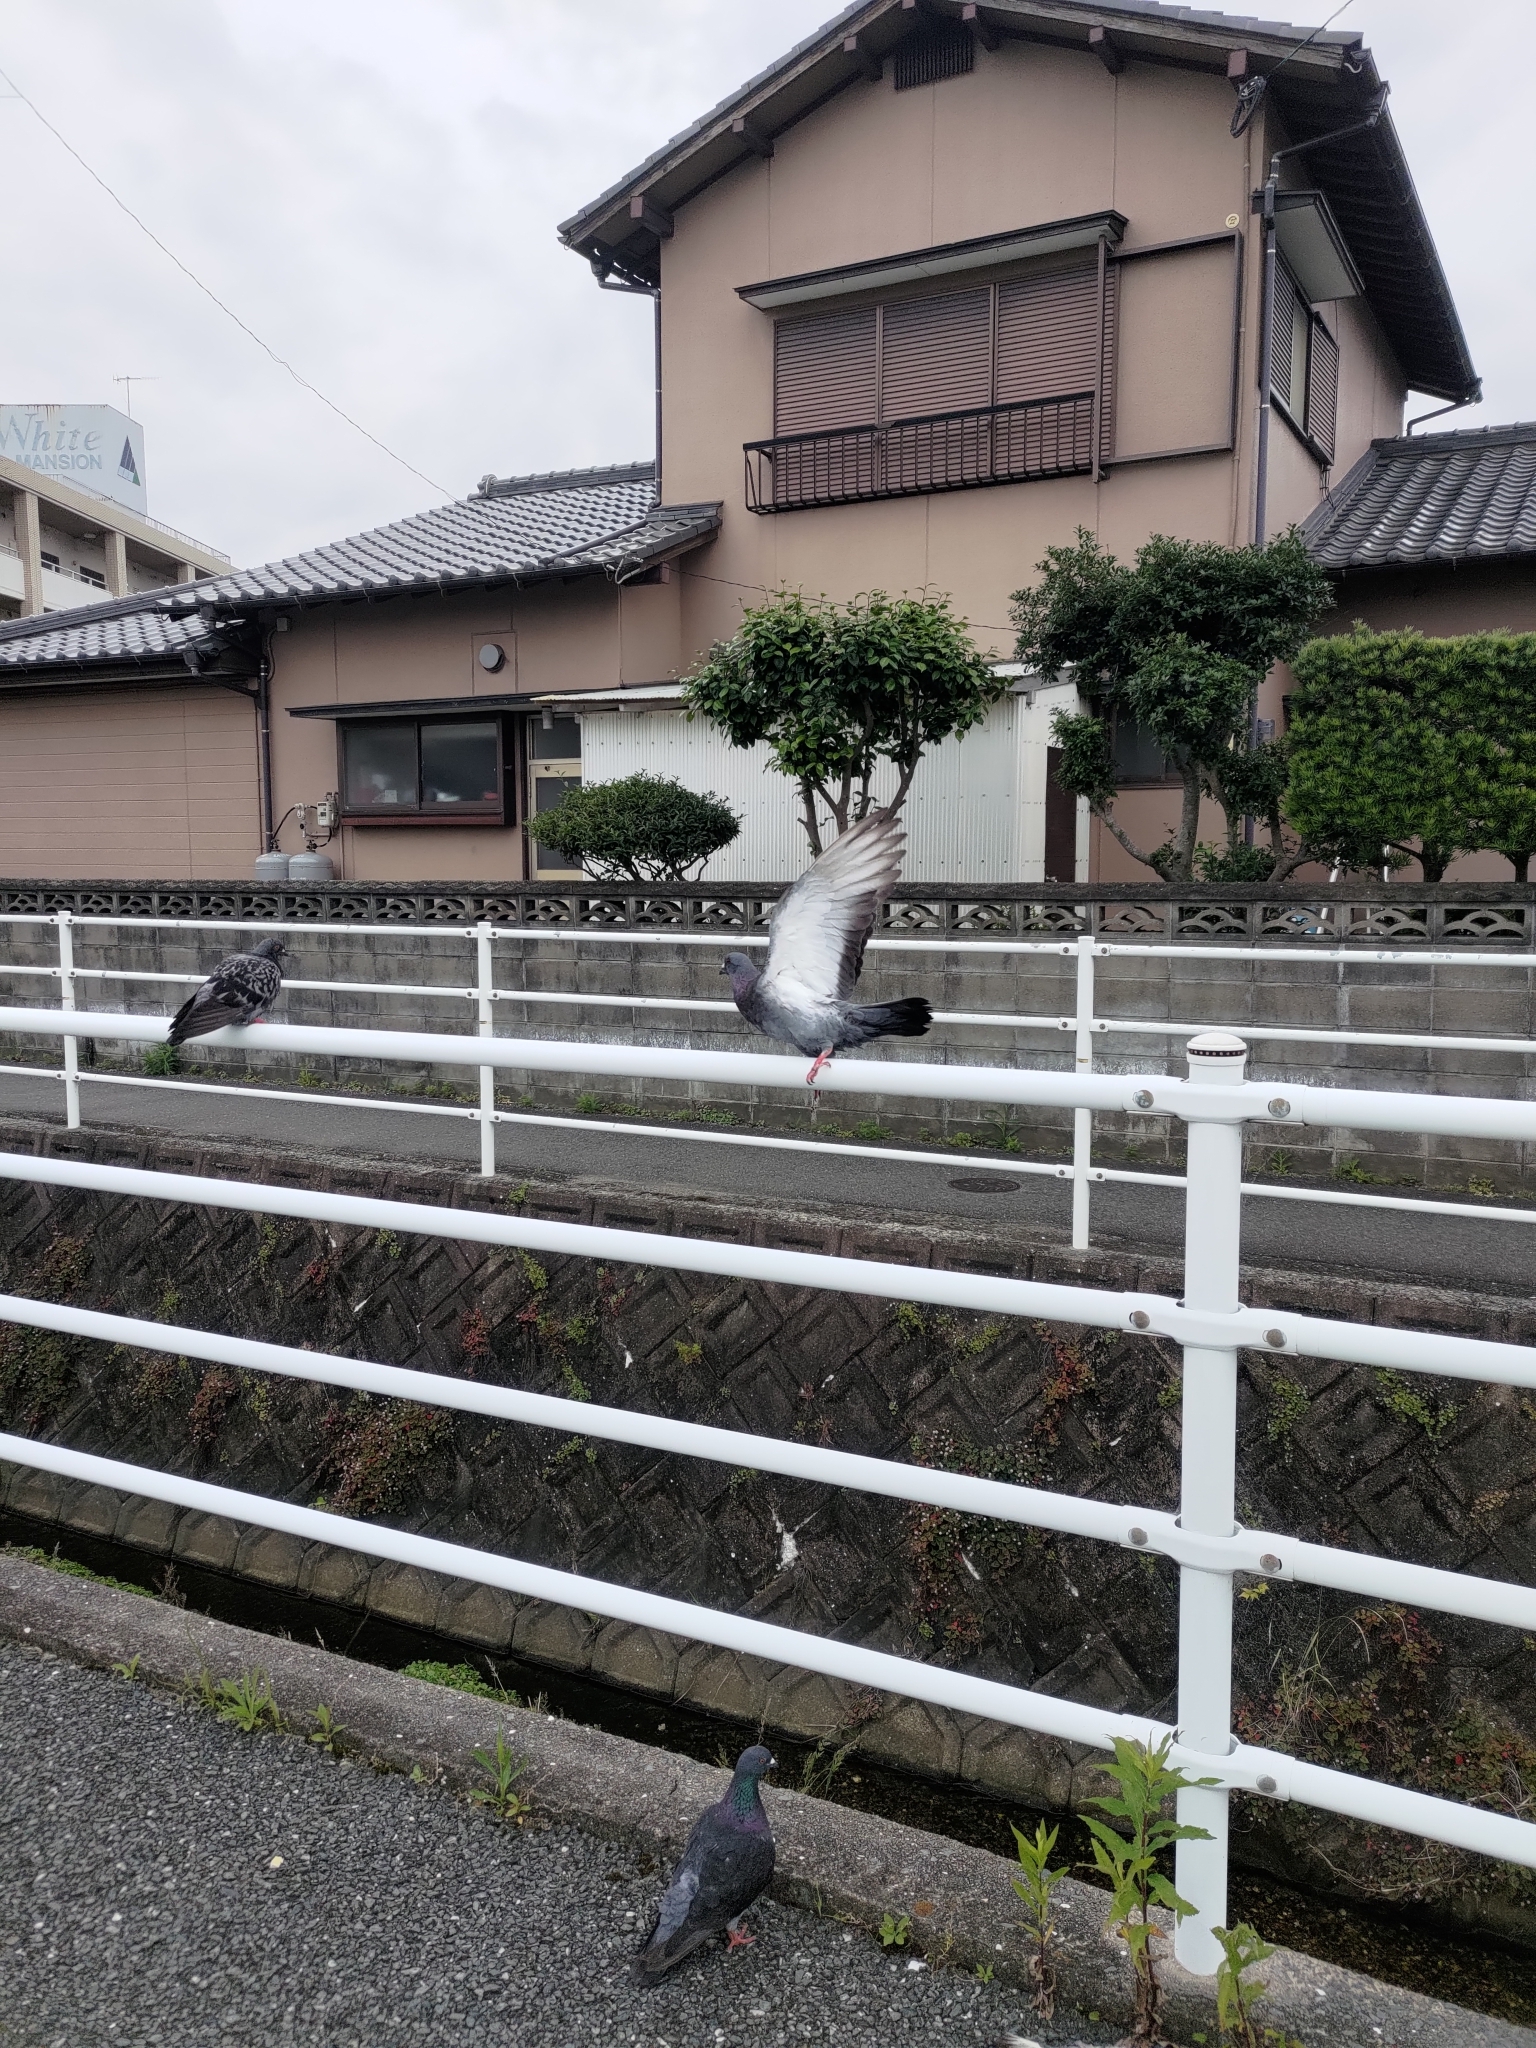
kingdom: Animalia
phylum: Chordata
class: Aves
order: Columbiformes
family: Columbidae
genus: Columba
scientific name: Columba livia
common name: Rock pigeon
